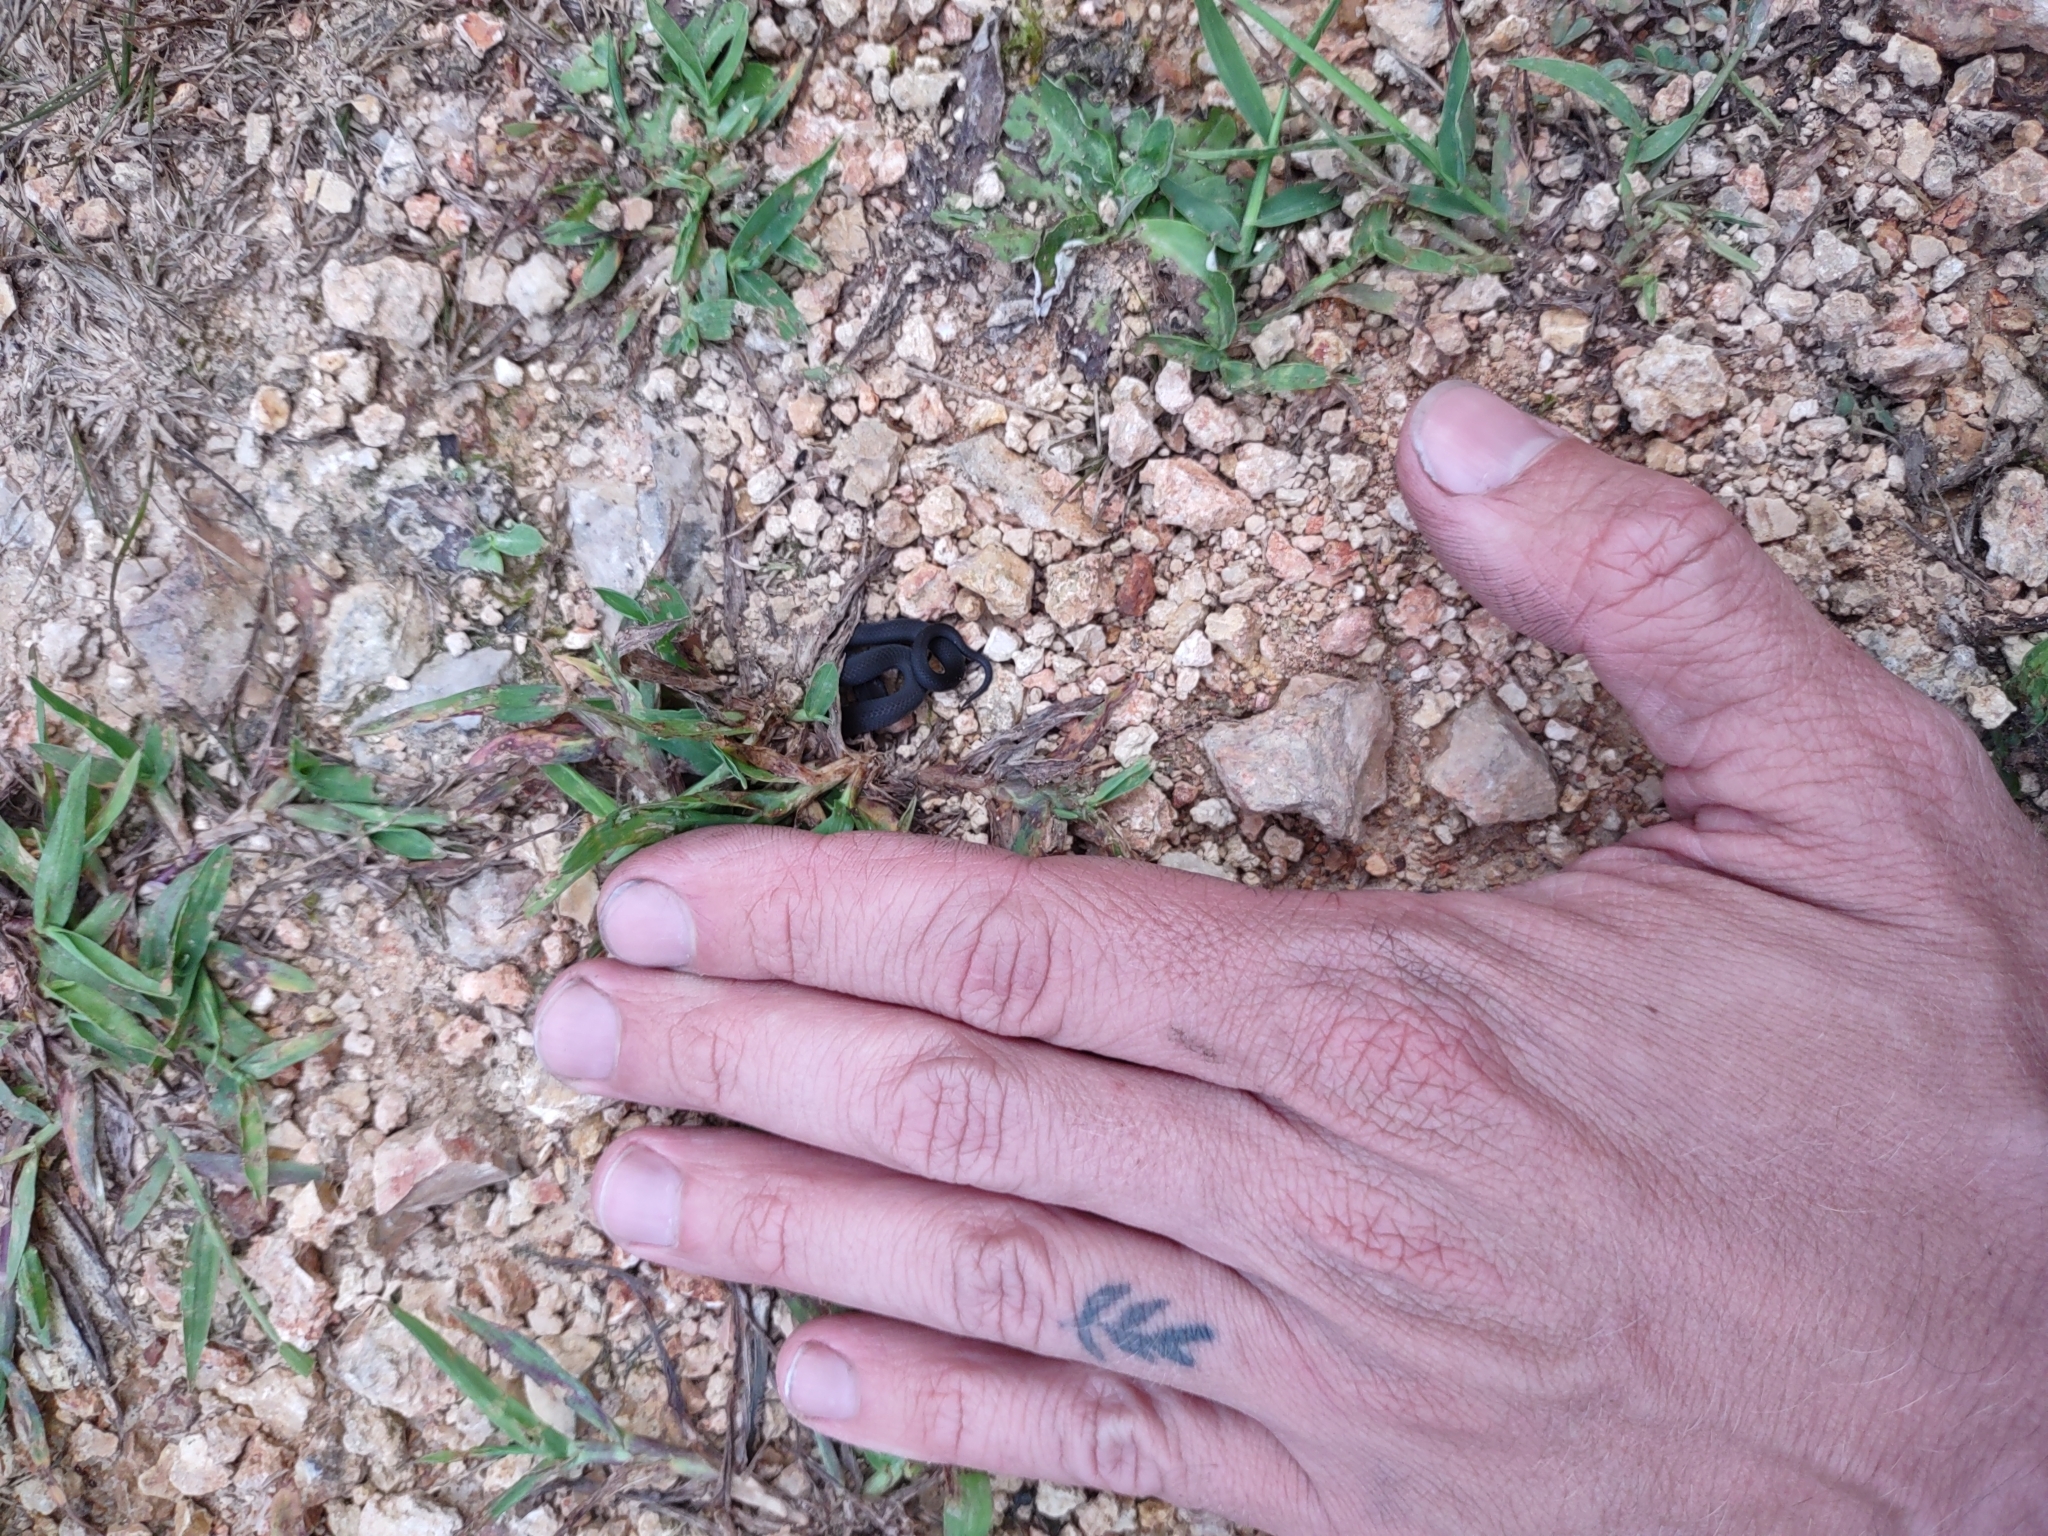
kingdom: Animalia
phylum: Chordata
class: Squamata
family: Colubridae
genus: Diadophis
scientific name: Diadophis punctatus
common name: Ringneck snake
